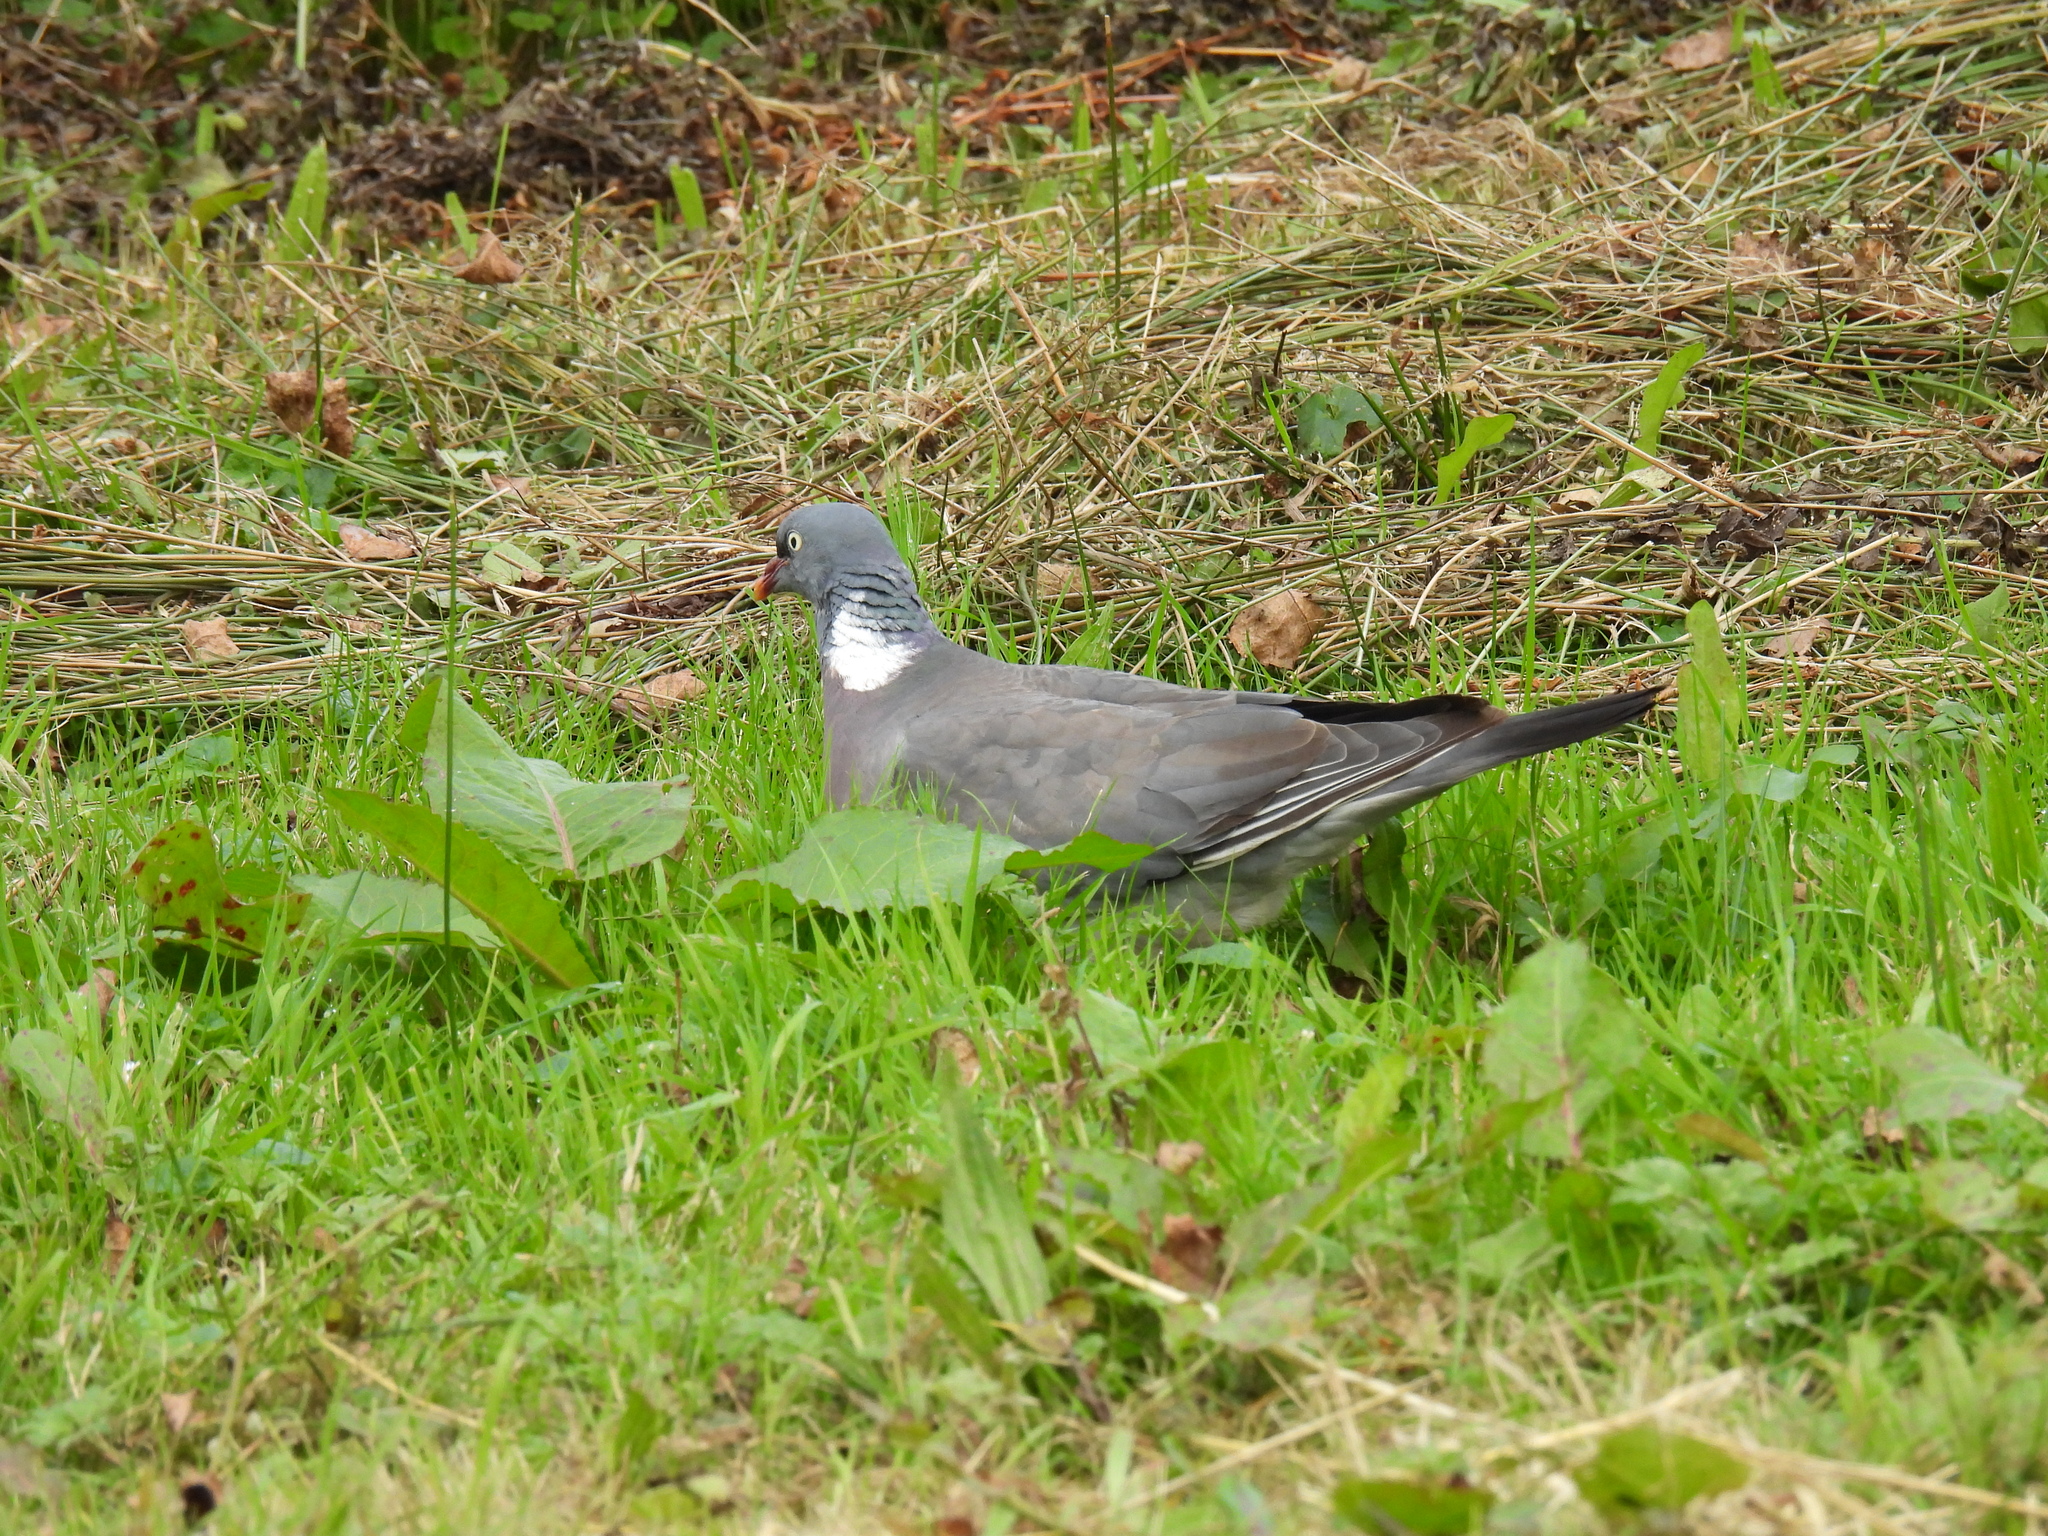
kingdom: Animalia
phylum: Chordata
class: Aves
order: Columbiformes
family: Columbidae
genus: Columba
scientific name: Columba palumbus
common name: Common wood pigeon
